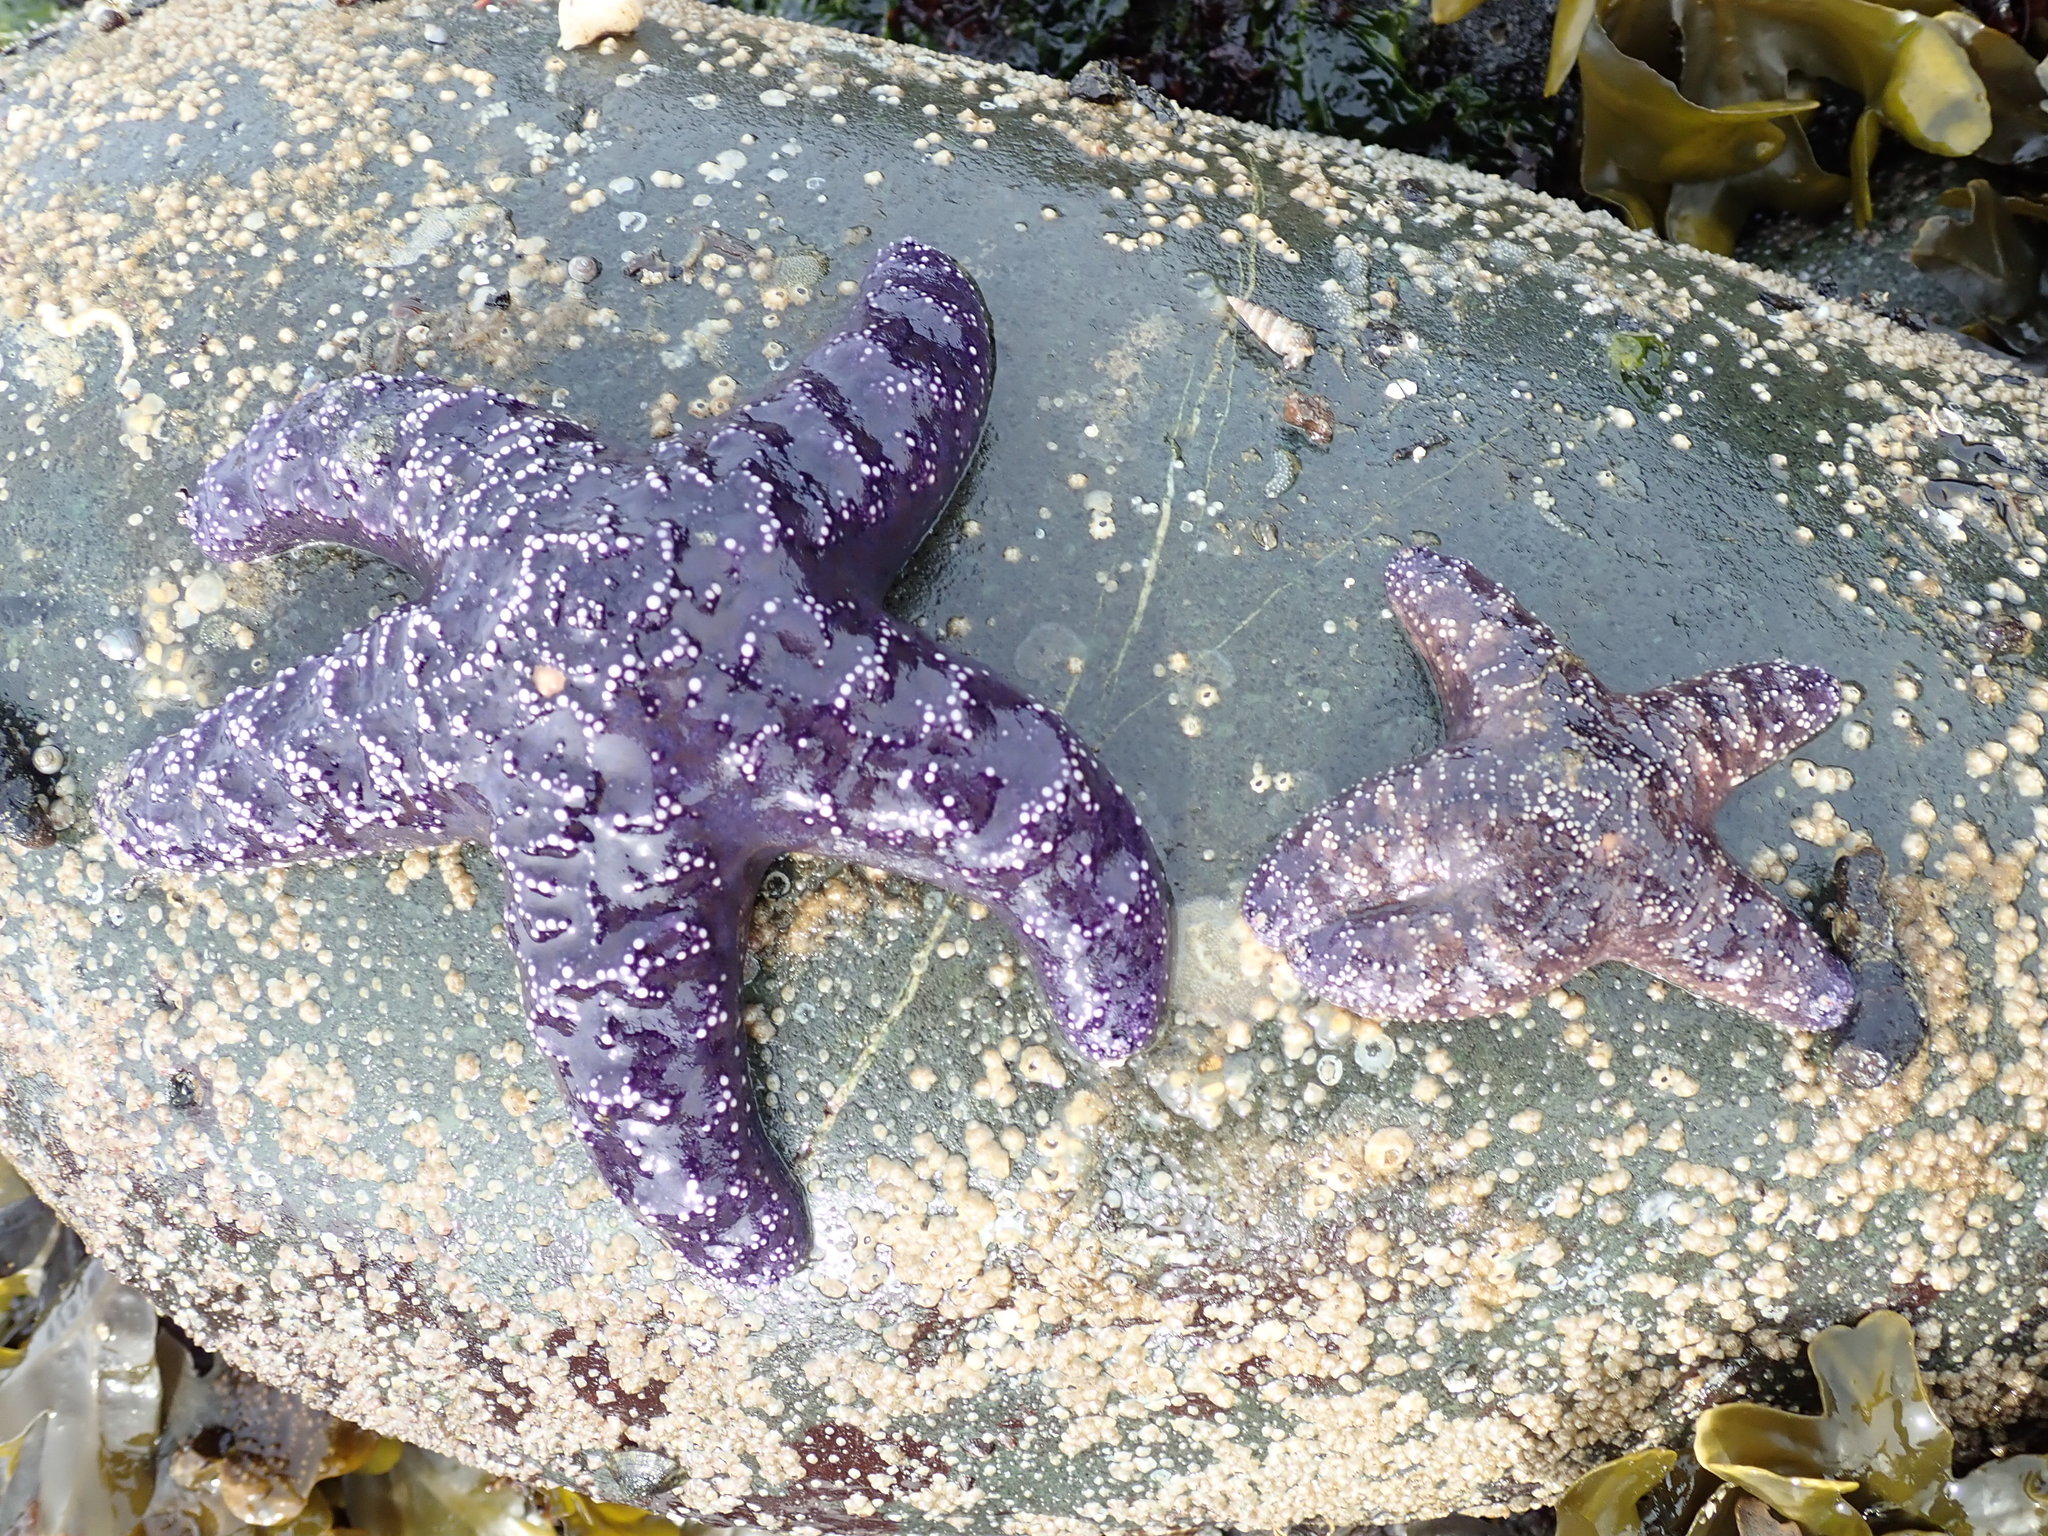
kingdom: Animalia
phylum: Echinodermata
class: Asteroidea
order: Forcipulatida
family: Asteriidae
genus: Pisaster
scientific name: Pisaster ochraceus
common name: Ochre stars
